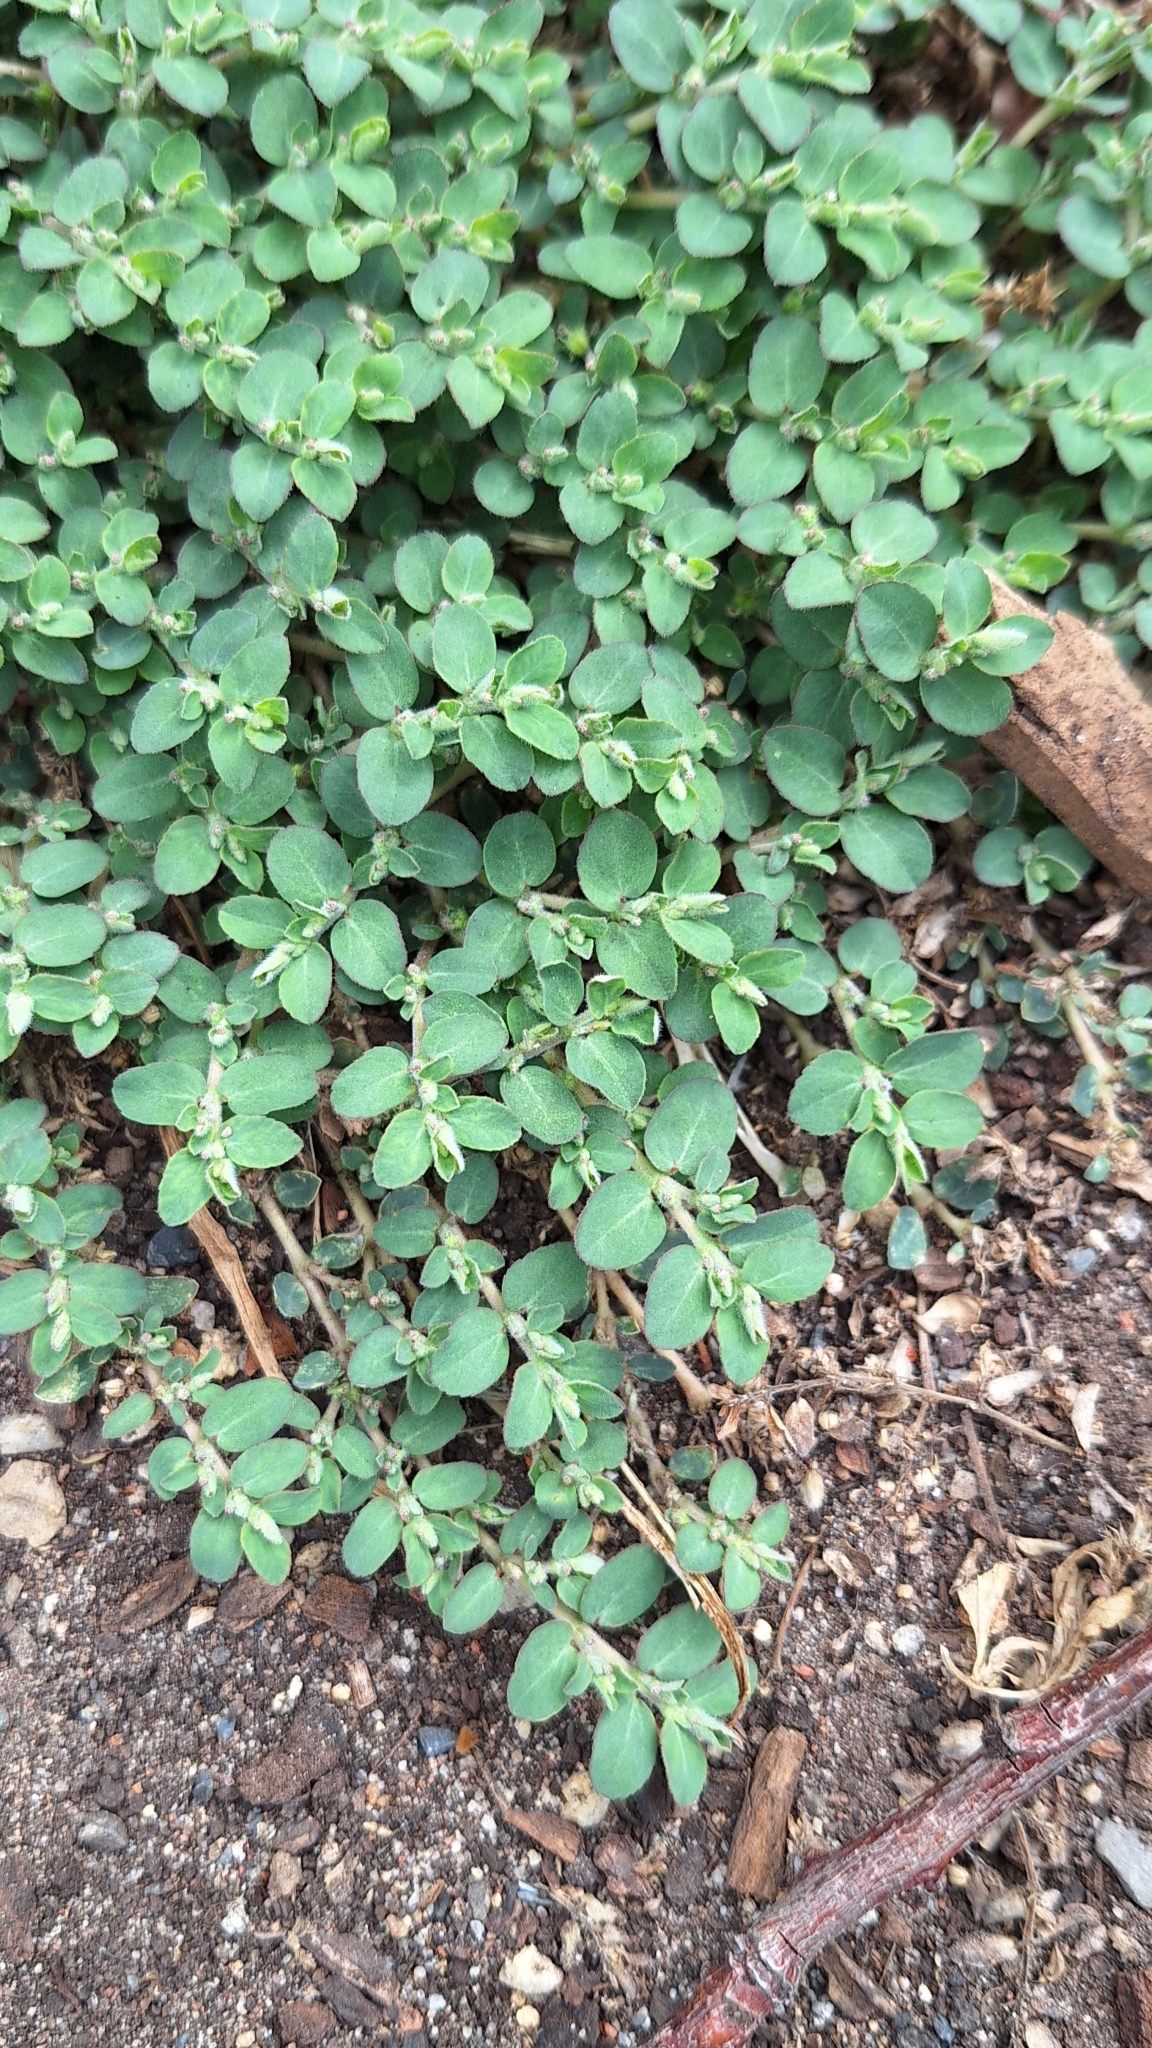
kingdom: Plantae
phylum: Tracheophyta
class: Magnoliopsida
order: Malpighiales
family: Euphorbiaceae
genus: Euphorbia
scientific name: Euphorbia prostrata
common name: Prostrate sandmat
